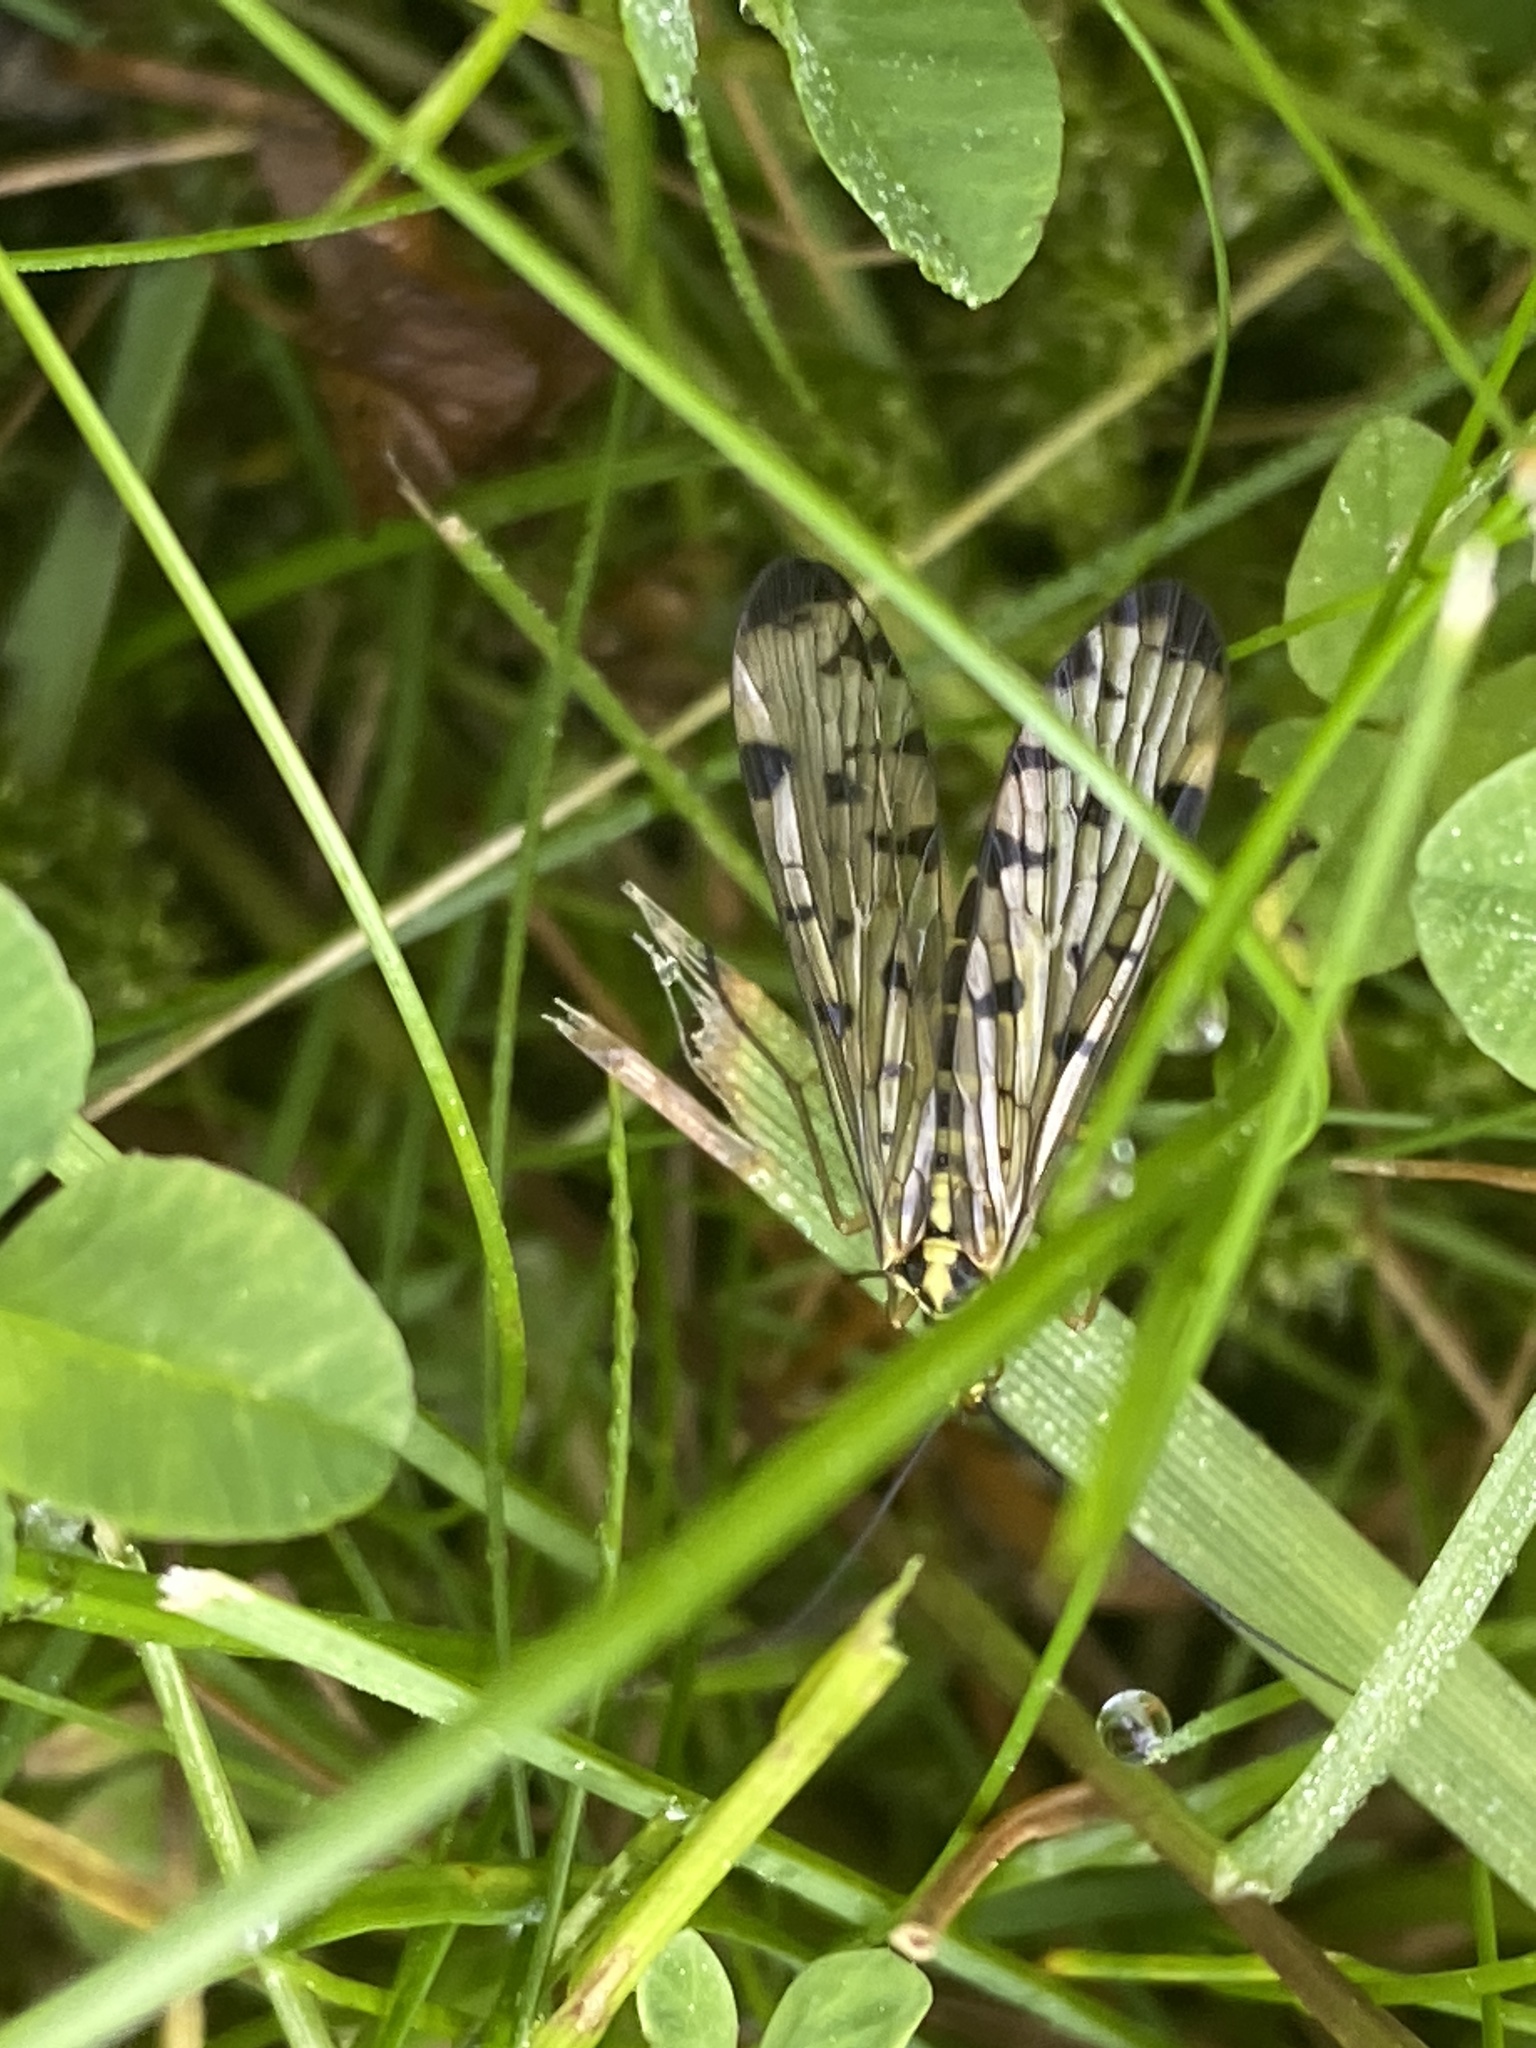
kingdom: Animalia
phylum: Arthropoda
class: Insecta
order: Mecoptera
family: Panorpidae
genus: Panorpa
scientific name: Panorpa germanica
